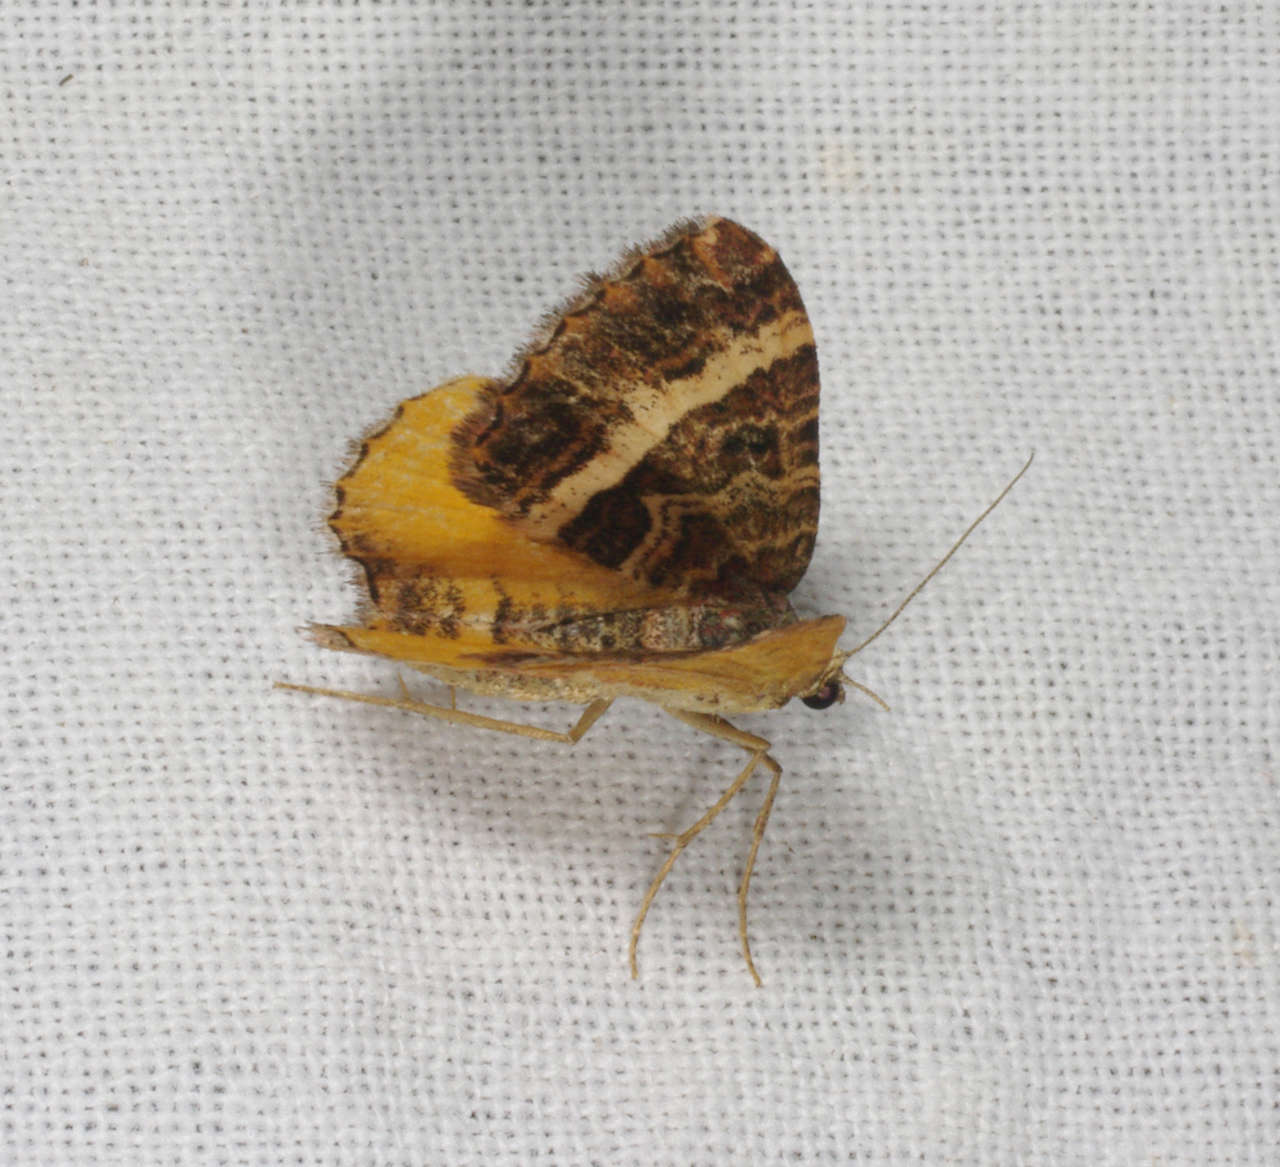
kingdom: Animalia
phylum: Arthropoda
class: Insecta
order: Lepidoptera
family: Geometridae
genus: Chrysolarentia
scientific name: Chrysolarentia vicissata
